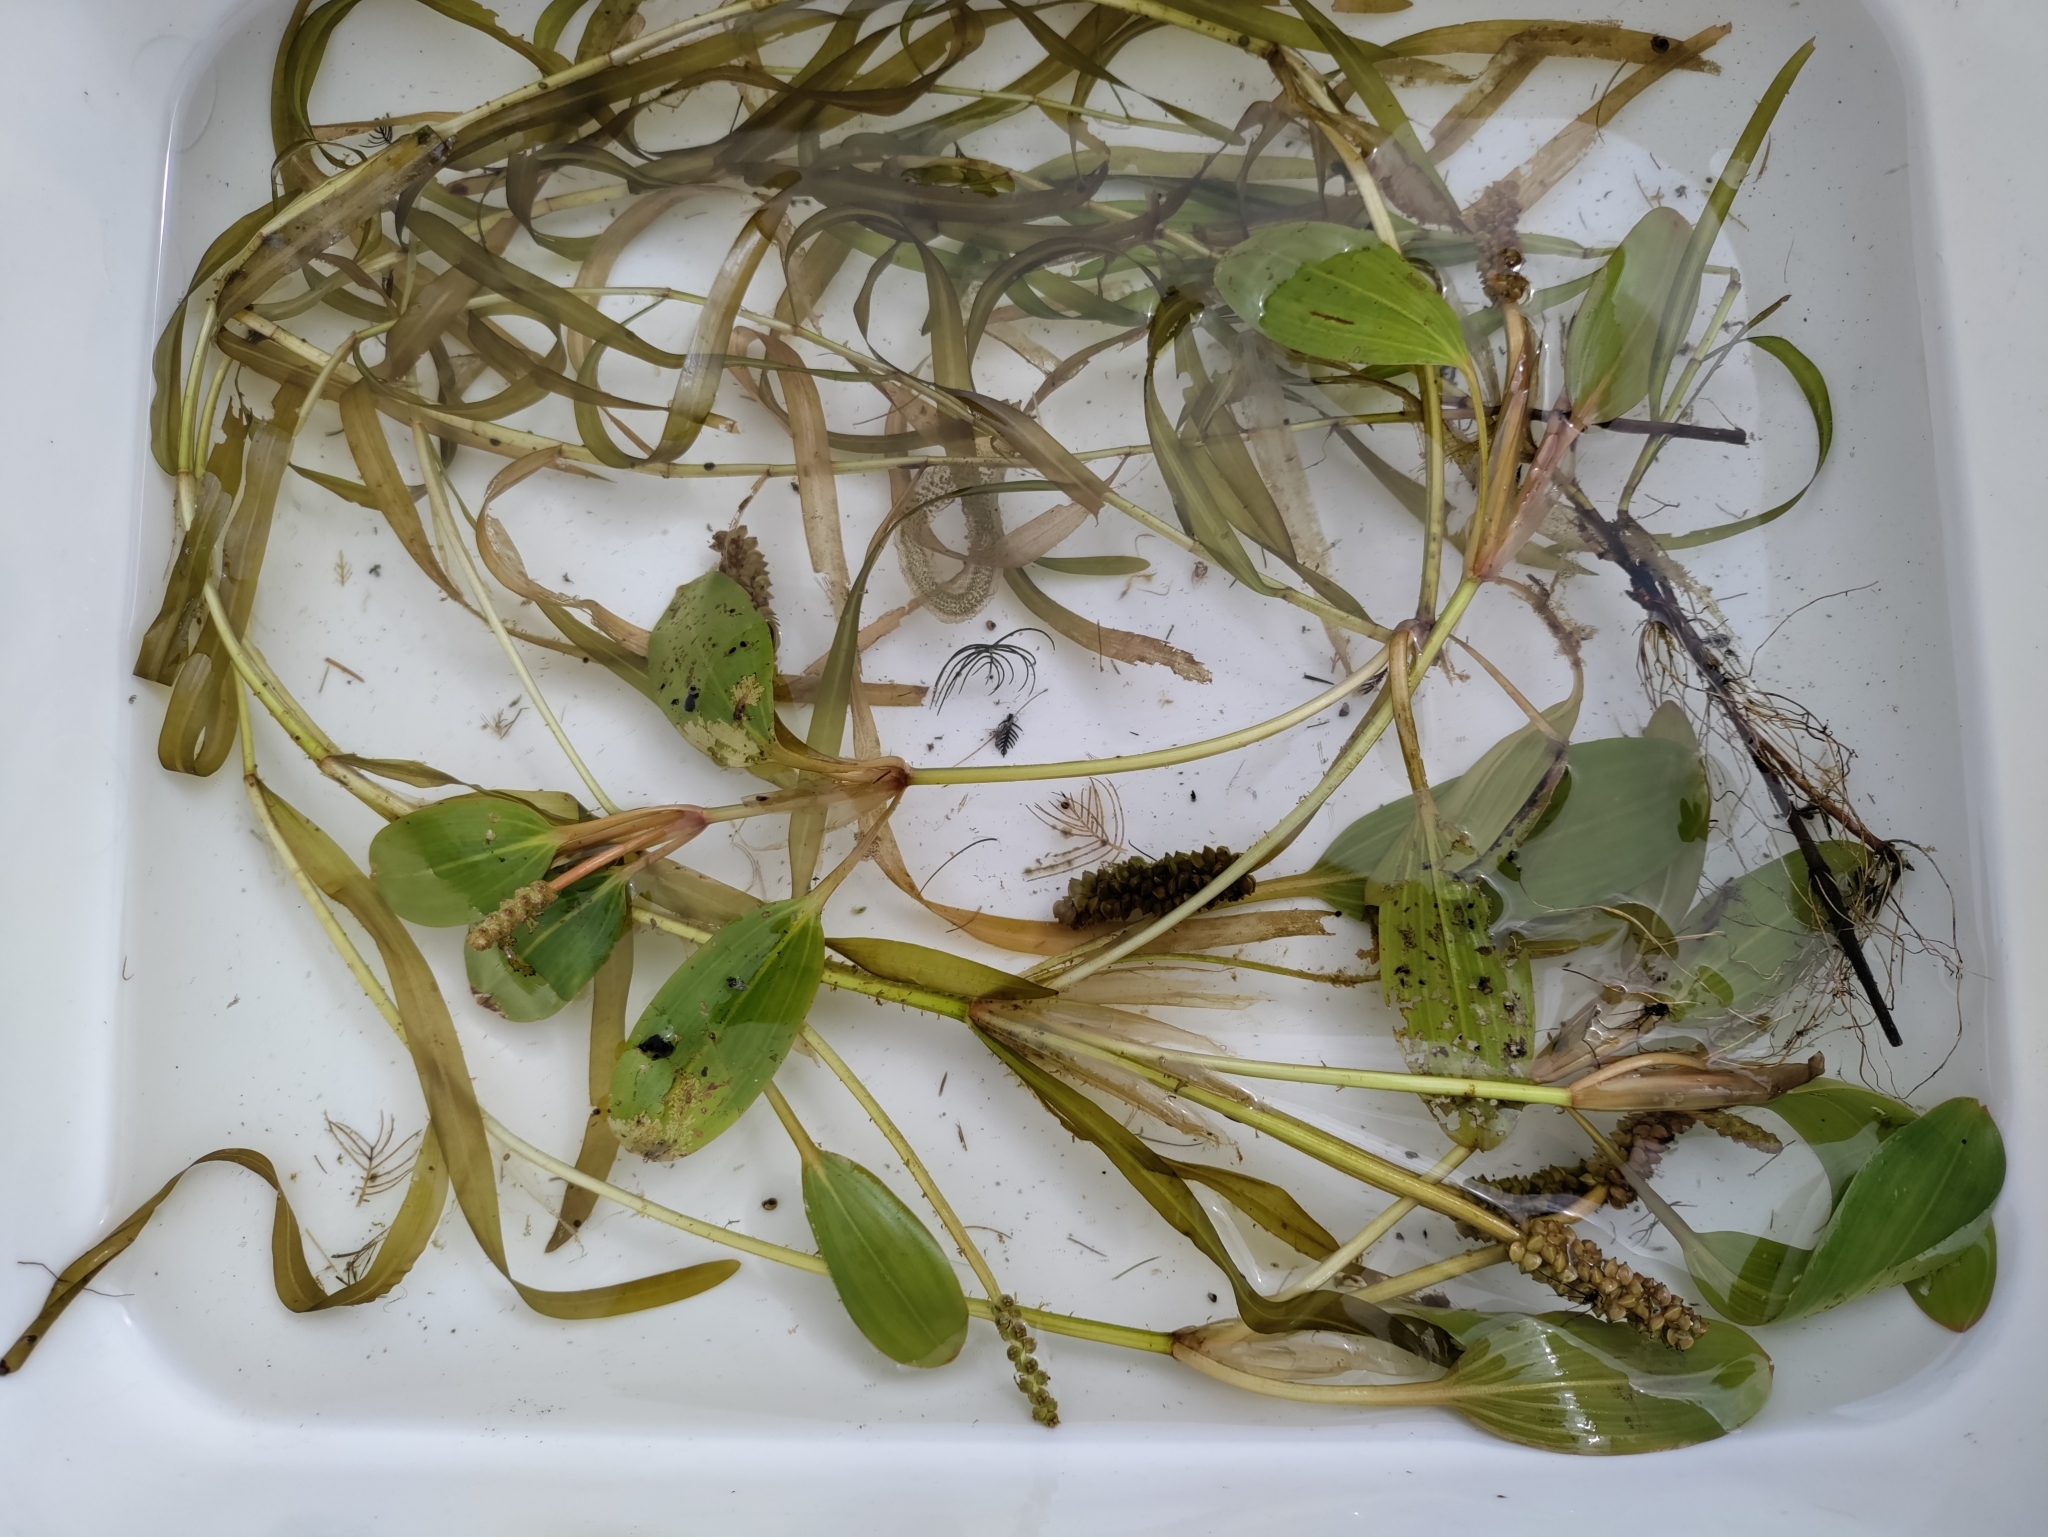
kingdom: Plantae
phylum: Tracheophyta
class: Liliopsida
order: Alismatales
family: Potamogetonaceae
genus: Potamogeton
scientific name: Potamogeton epihydrus
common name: American pondweed
